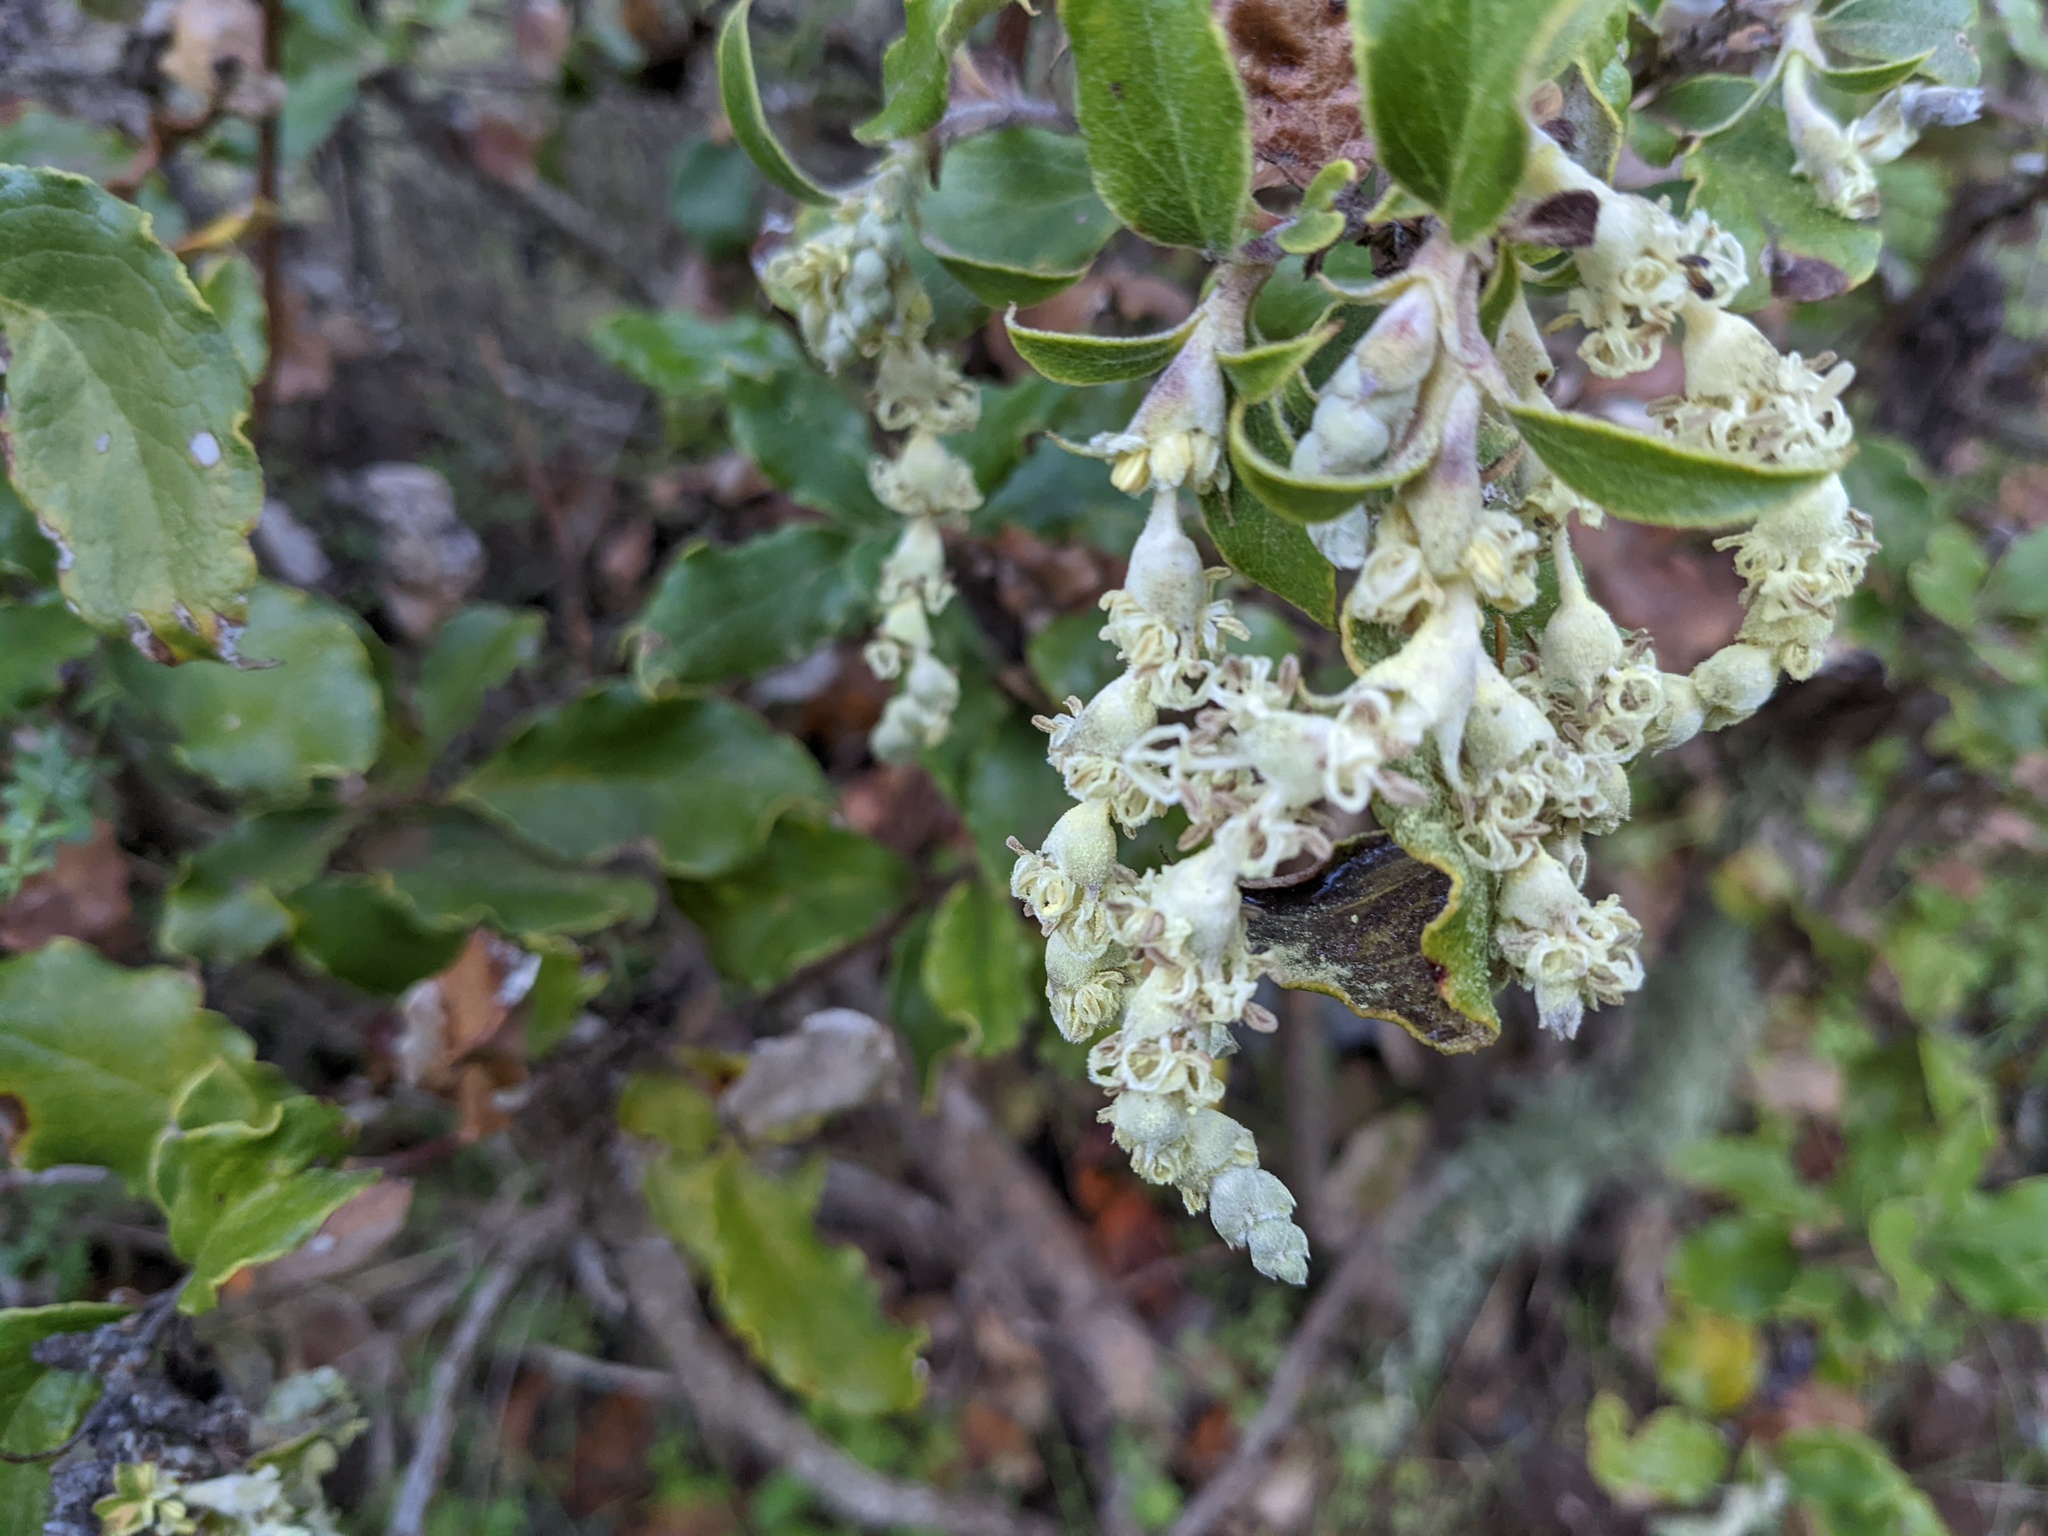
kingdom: Plantae
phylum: Tracheophyta
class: Magnoliopsida
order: Garryales
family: Garryaceae
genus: Garrya
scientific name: Garrya elliptica
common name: Silk-tassel
